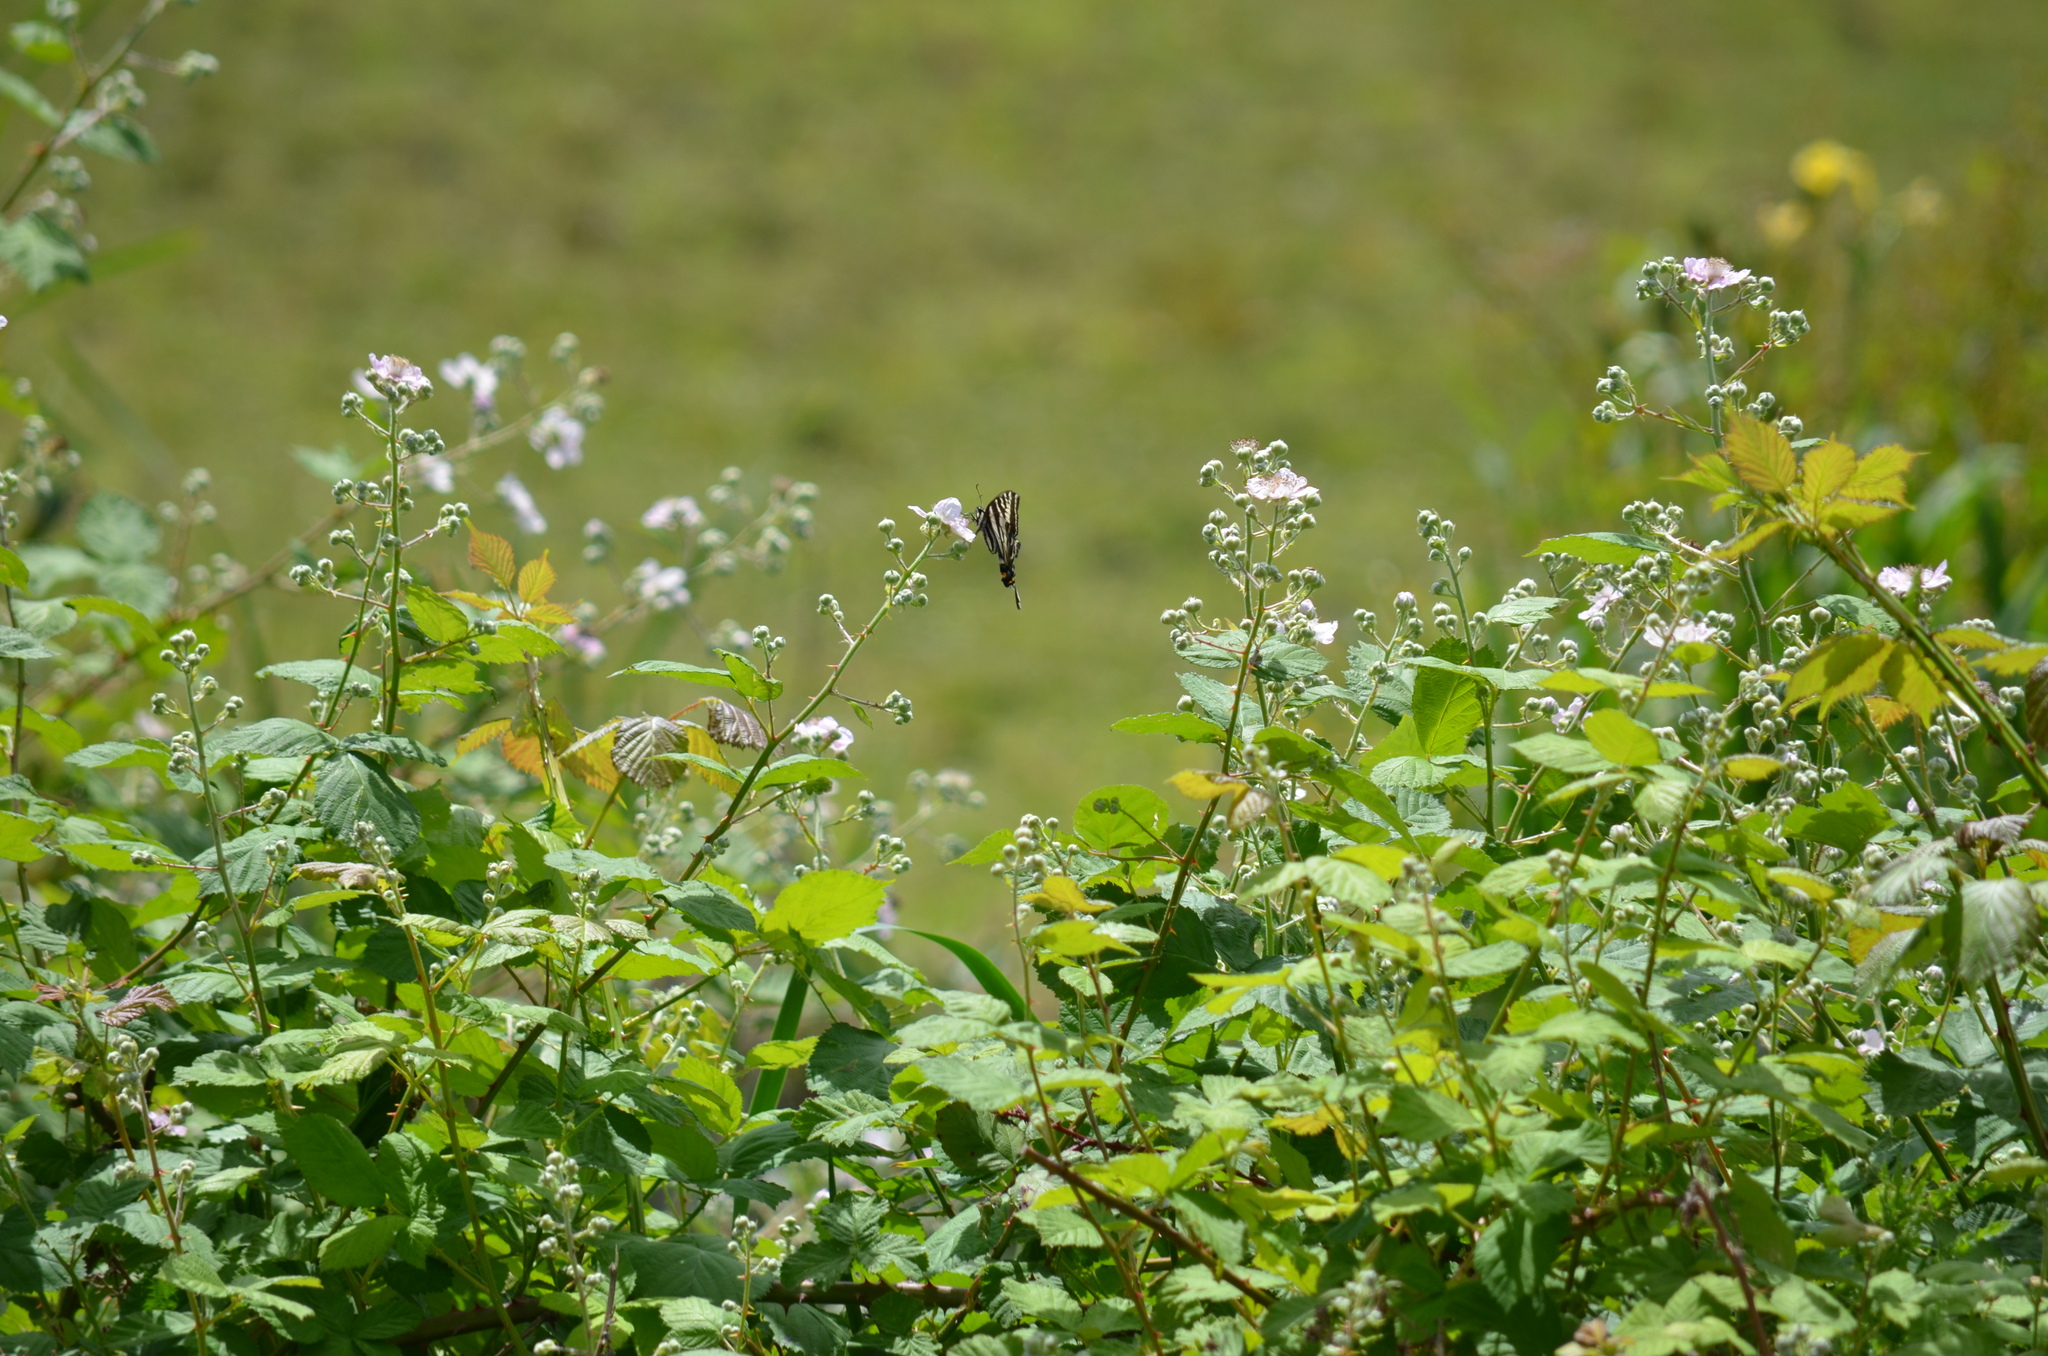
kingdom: Animalia
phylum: Arthropoda
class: Insecta
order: Lepidoptera
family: Papilionidae
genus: Papilio
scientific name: Papilio eurymedon
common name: Pale tiger swallowtail
